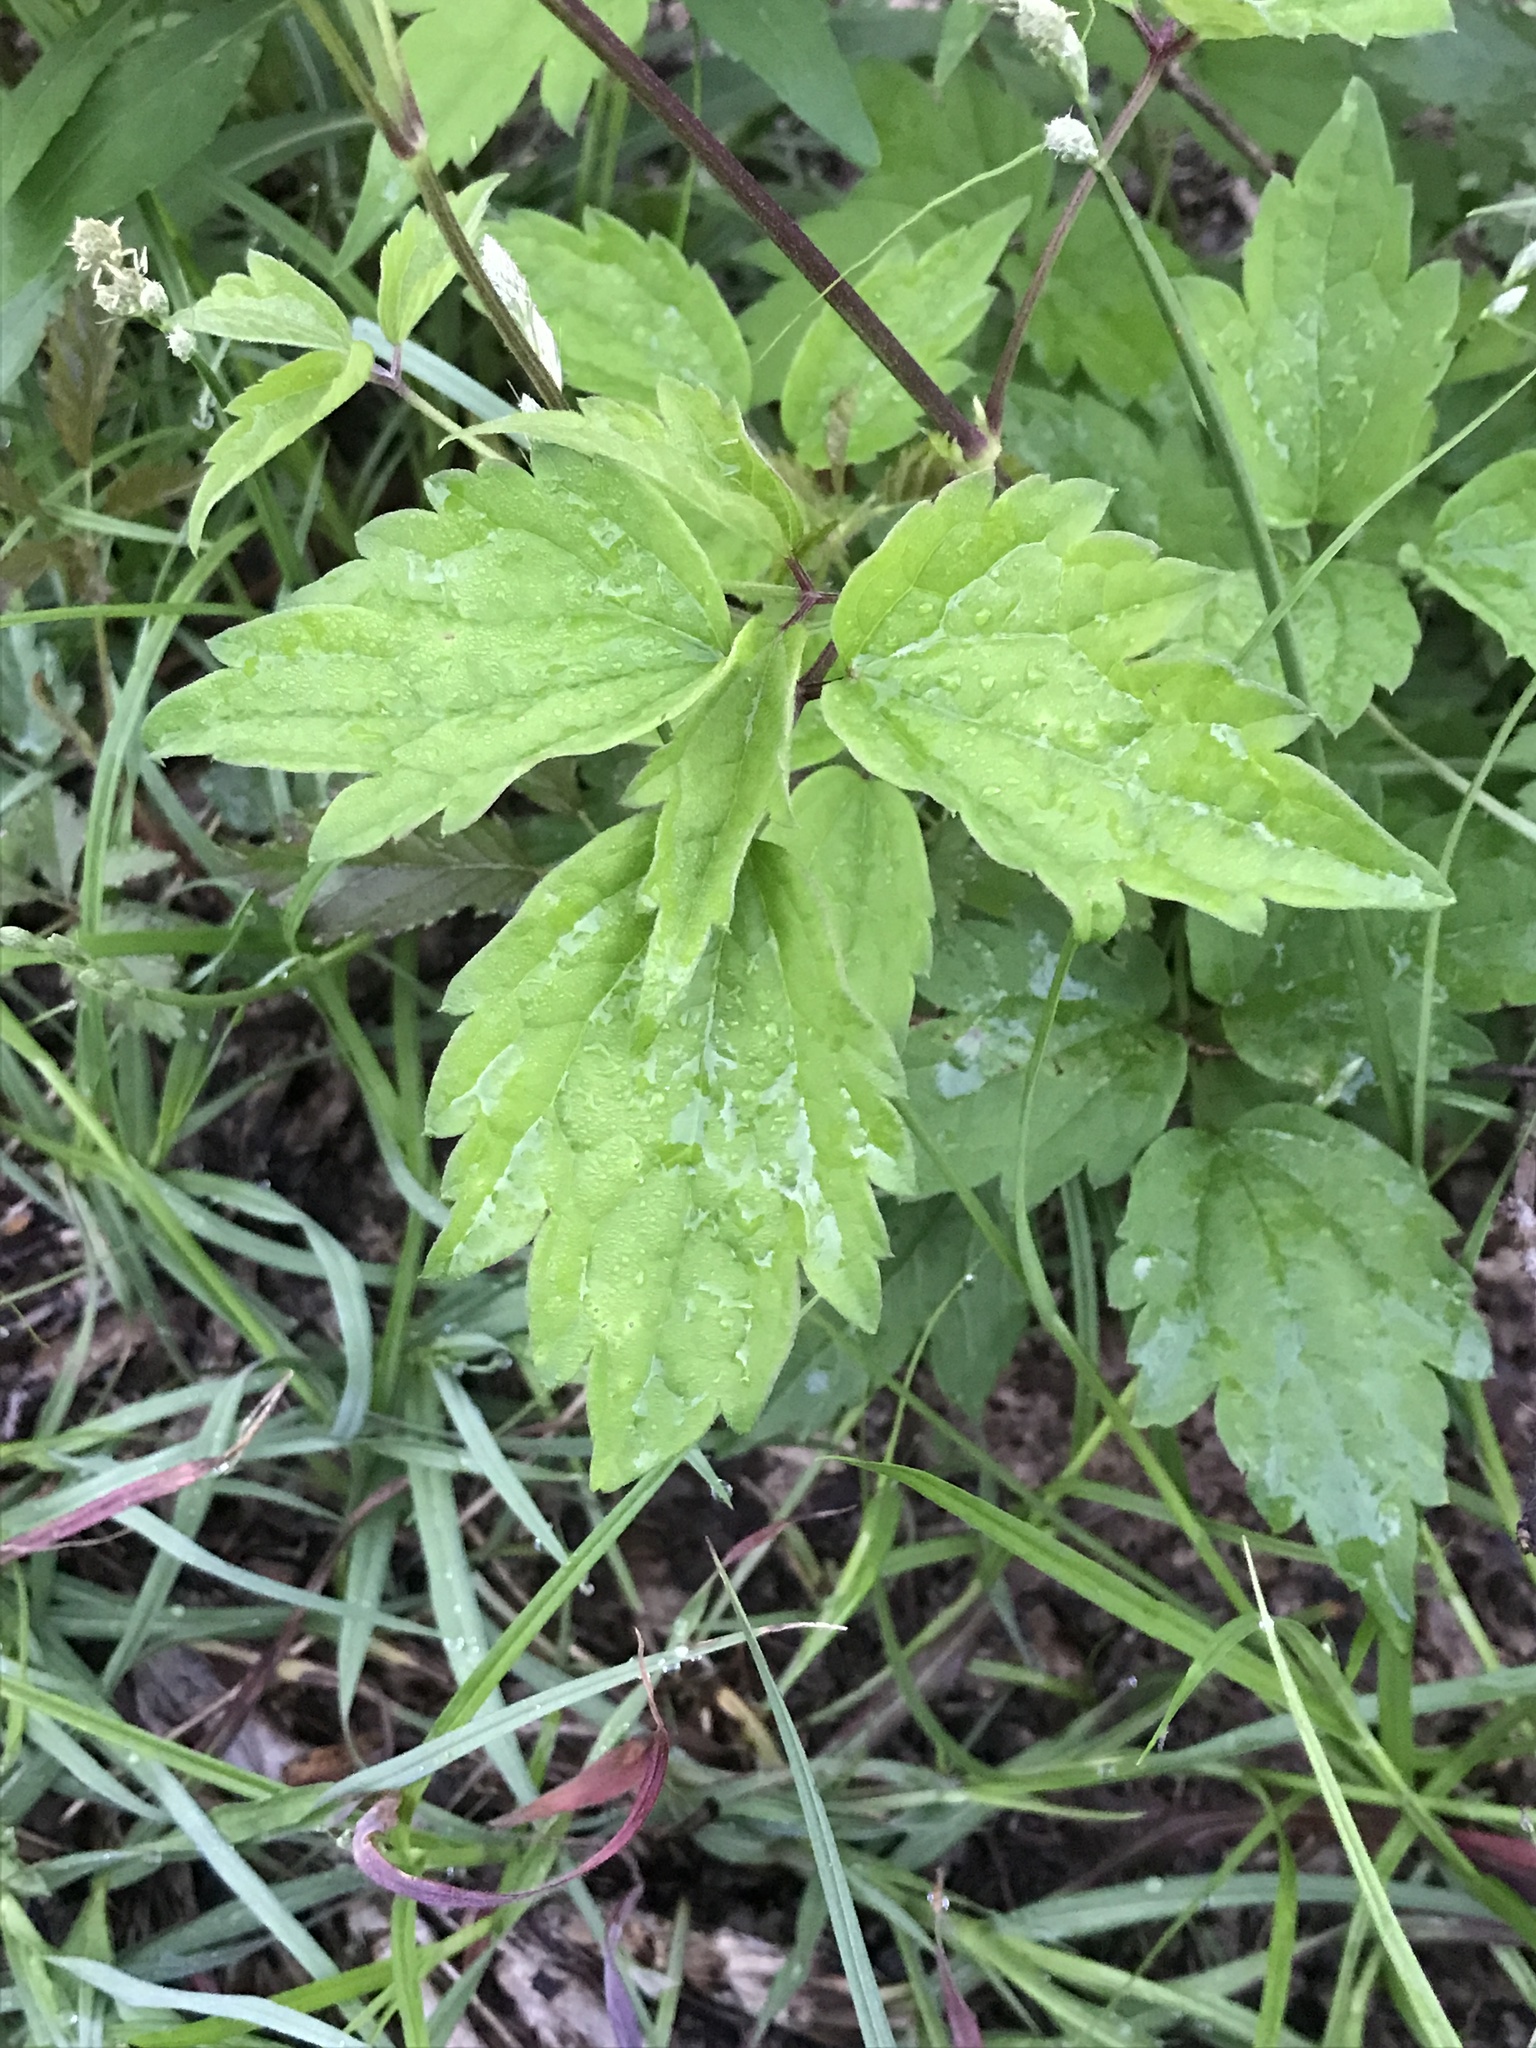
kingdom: Plantae
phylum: Tracheophyta
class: Magnoliopsida
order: Ranunculales
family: Ranunculaceae
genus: Clematis
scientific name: Clematis virginiana
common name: Virgin's-bower
